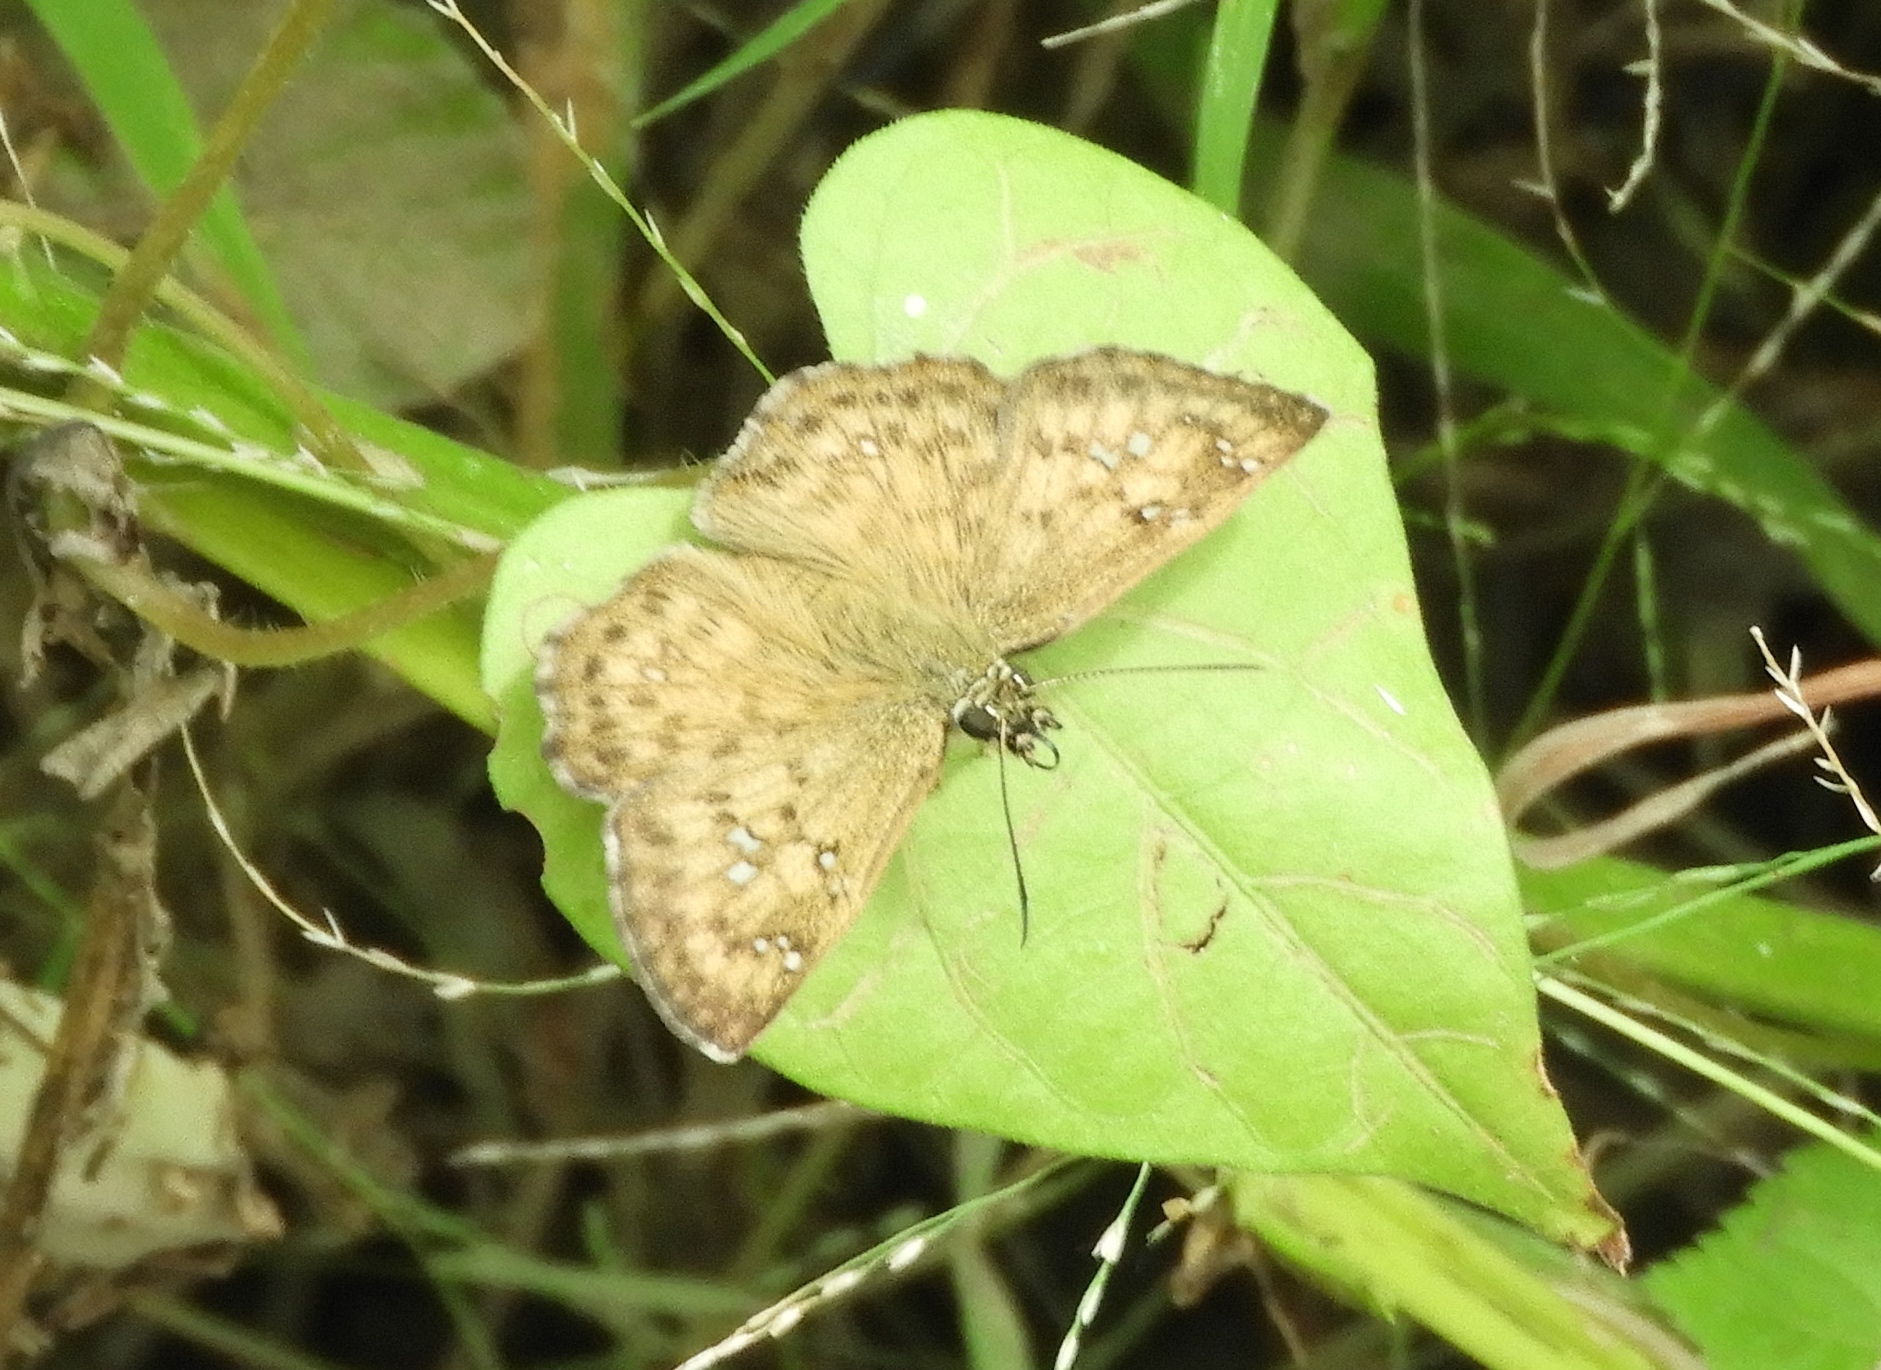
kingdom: Animalia
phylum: Arthropoda
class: Insecta
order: Lepidoptera
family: Hesperiidae
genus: Carrhenes
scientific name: Carrhenes fuscescens
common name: Tanned hoary-skipper
